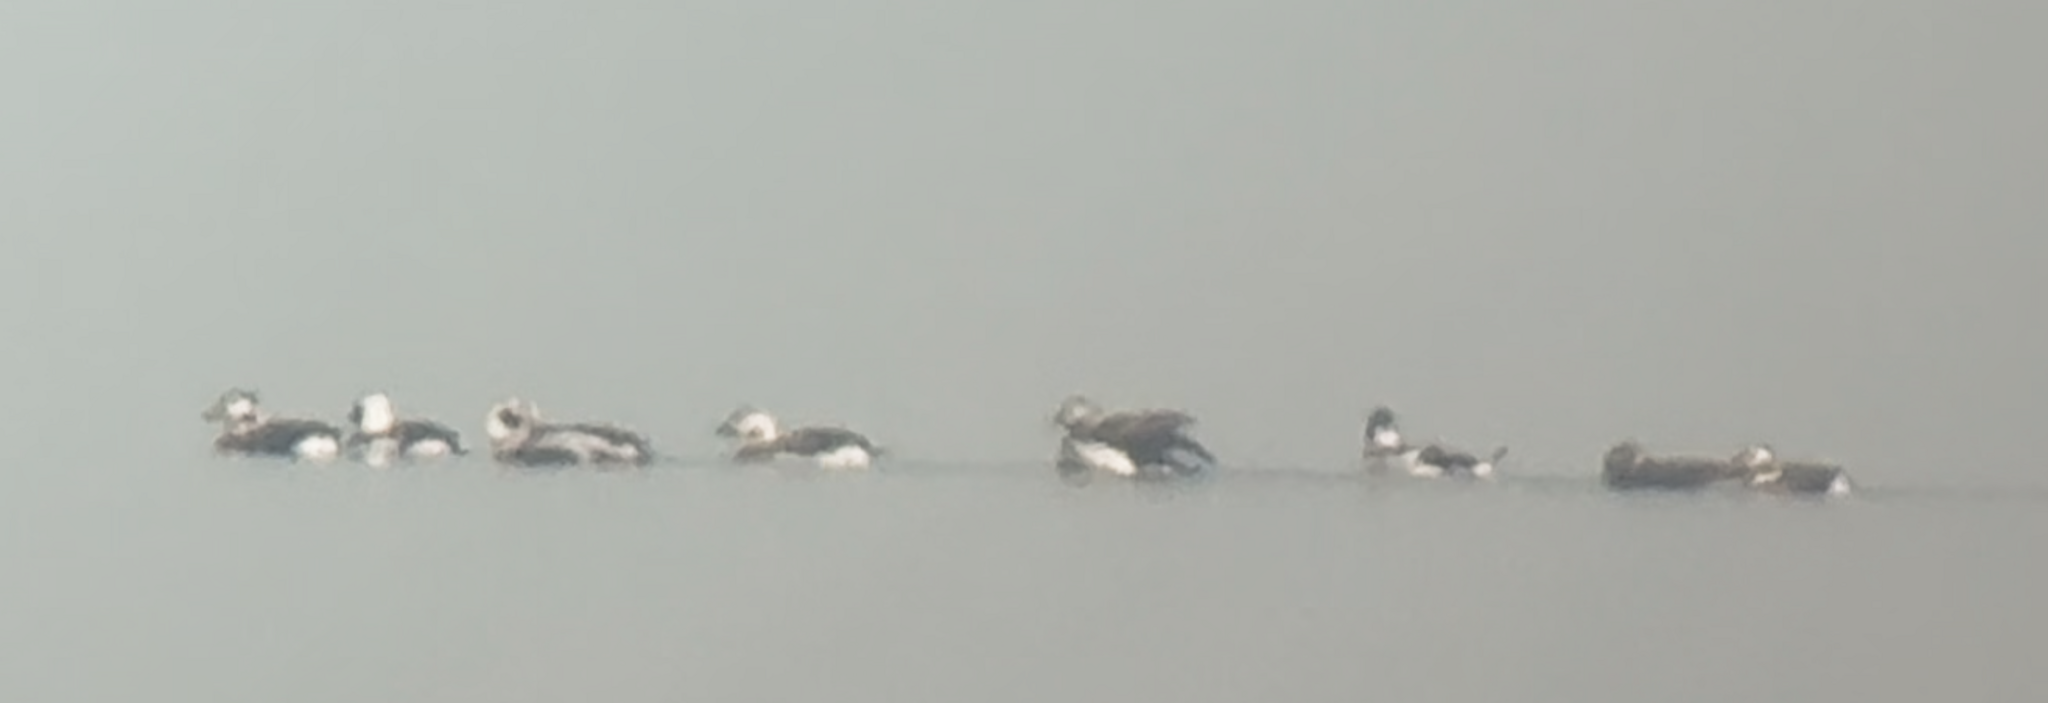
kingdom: Animalia
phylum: Chordata
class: Aves
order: Anseriformes
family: Anatidae
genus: Clangula
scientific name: Clangula hyemalis
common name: Long-tailed duck
